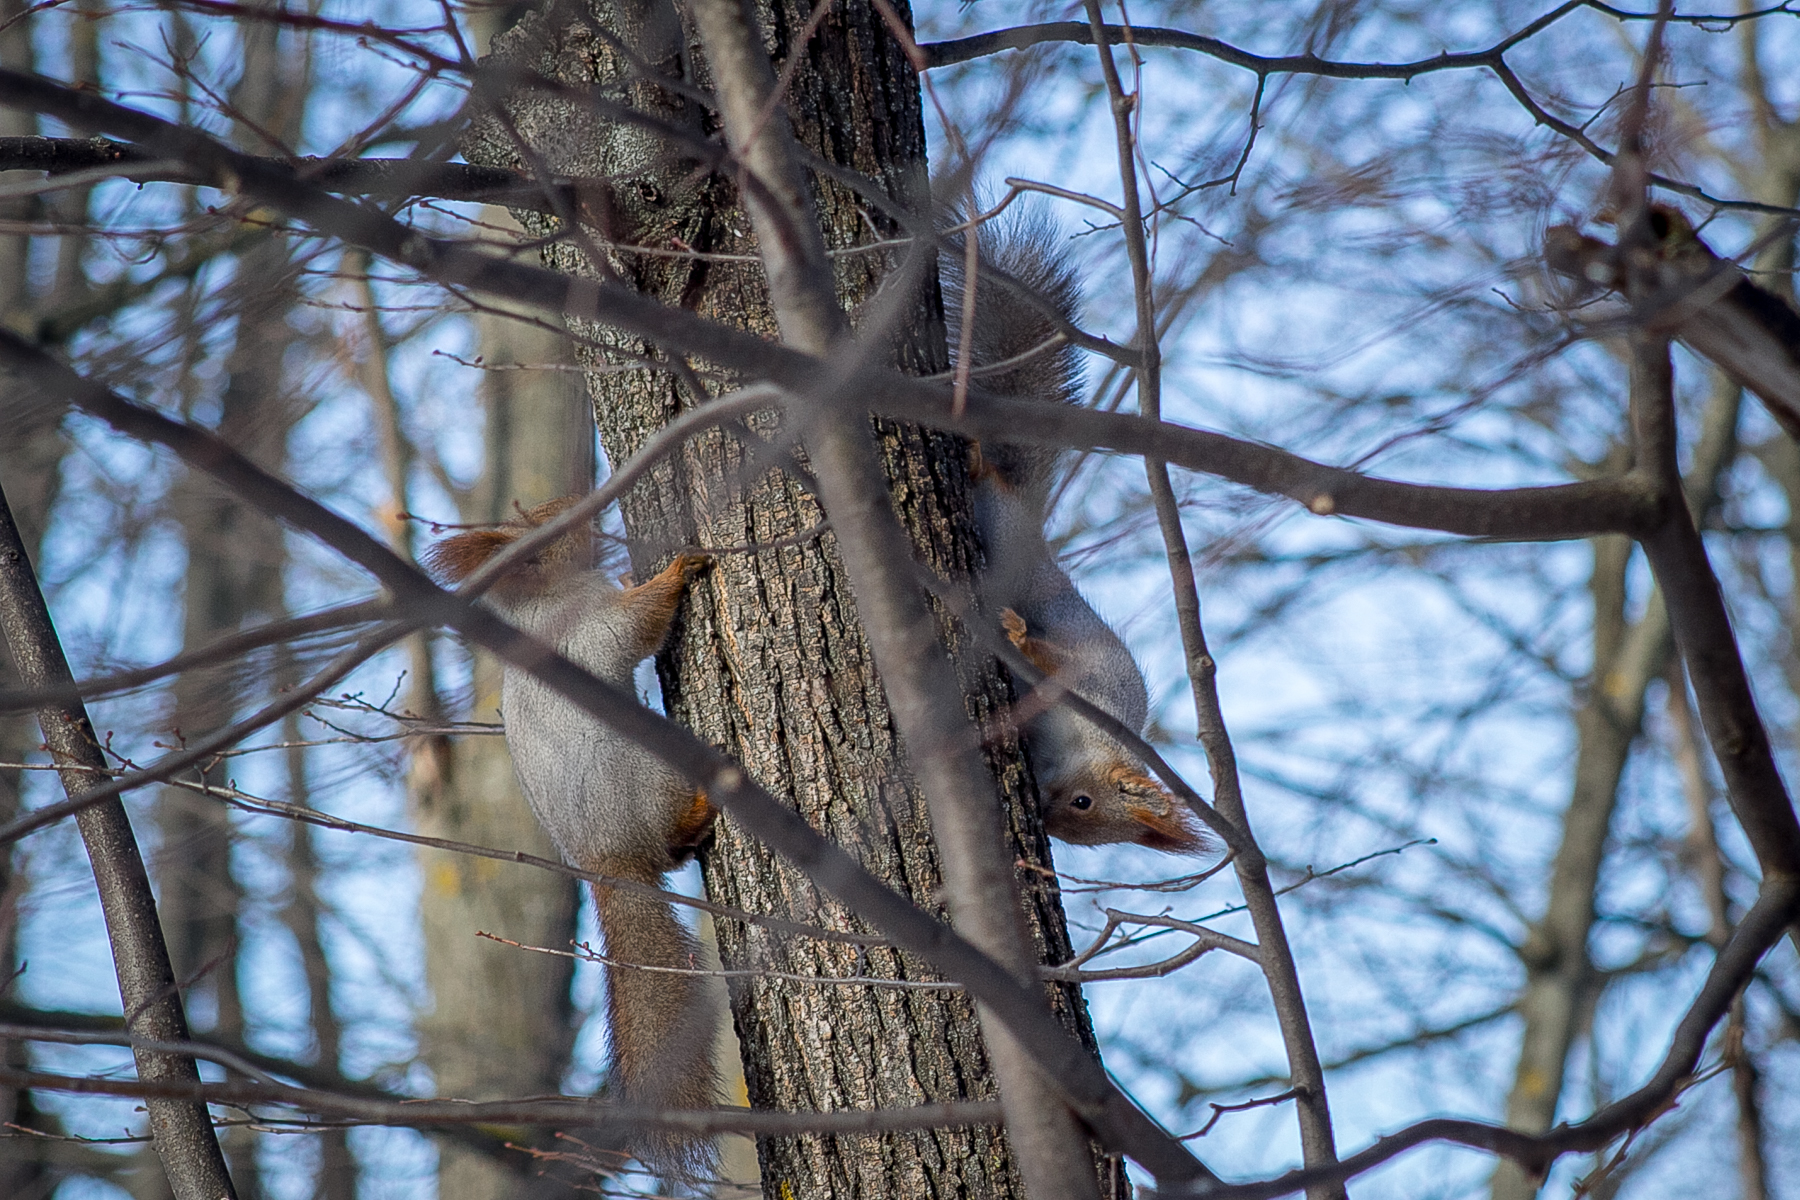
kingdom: Animalia
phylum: Chordata
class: Mammalia
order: Rodentia
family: Sciuridae
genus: Sciurus
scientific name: Sciurus vulgaris
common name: Eurasian red squirrel
